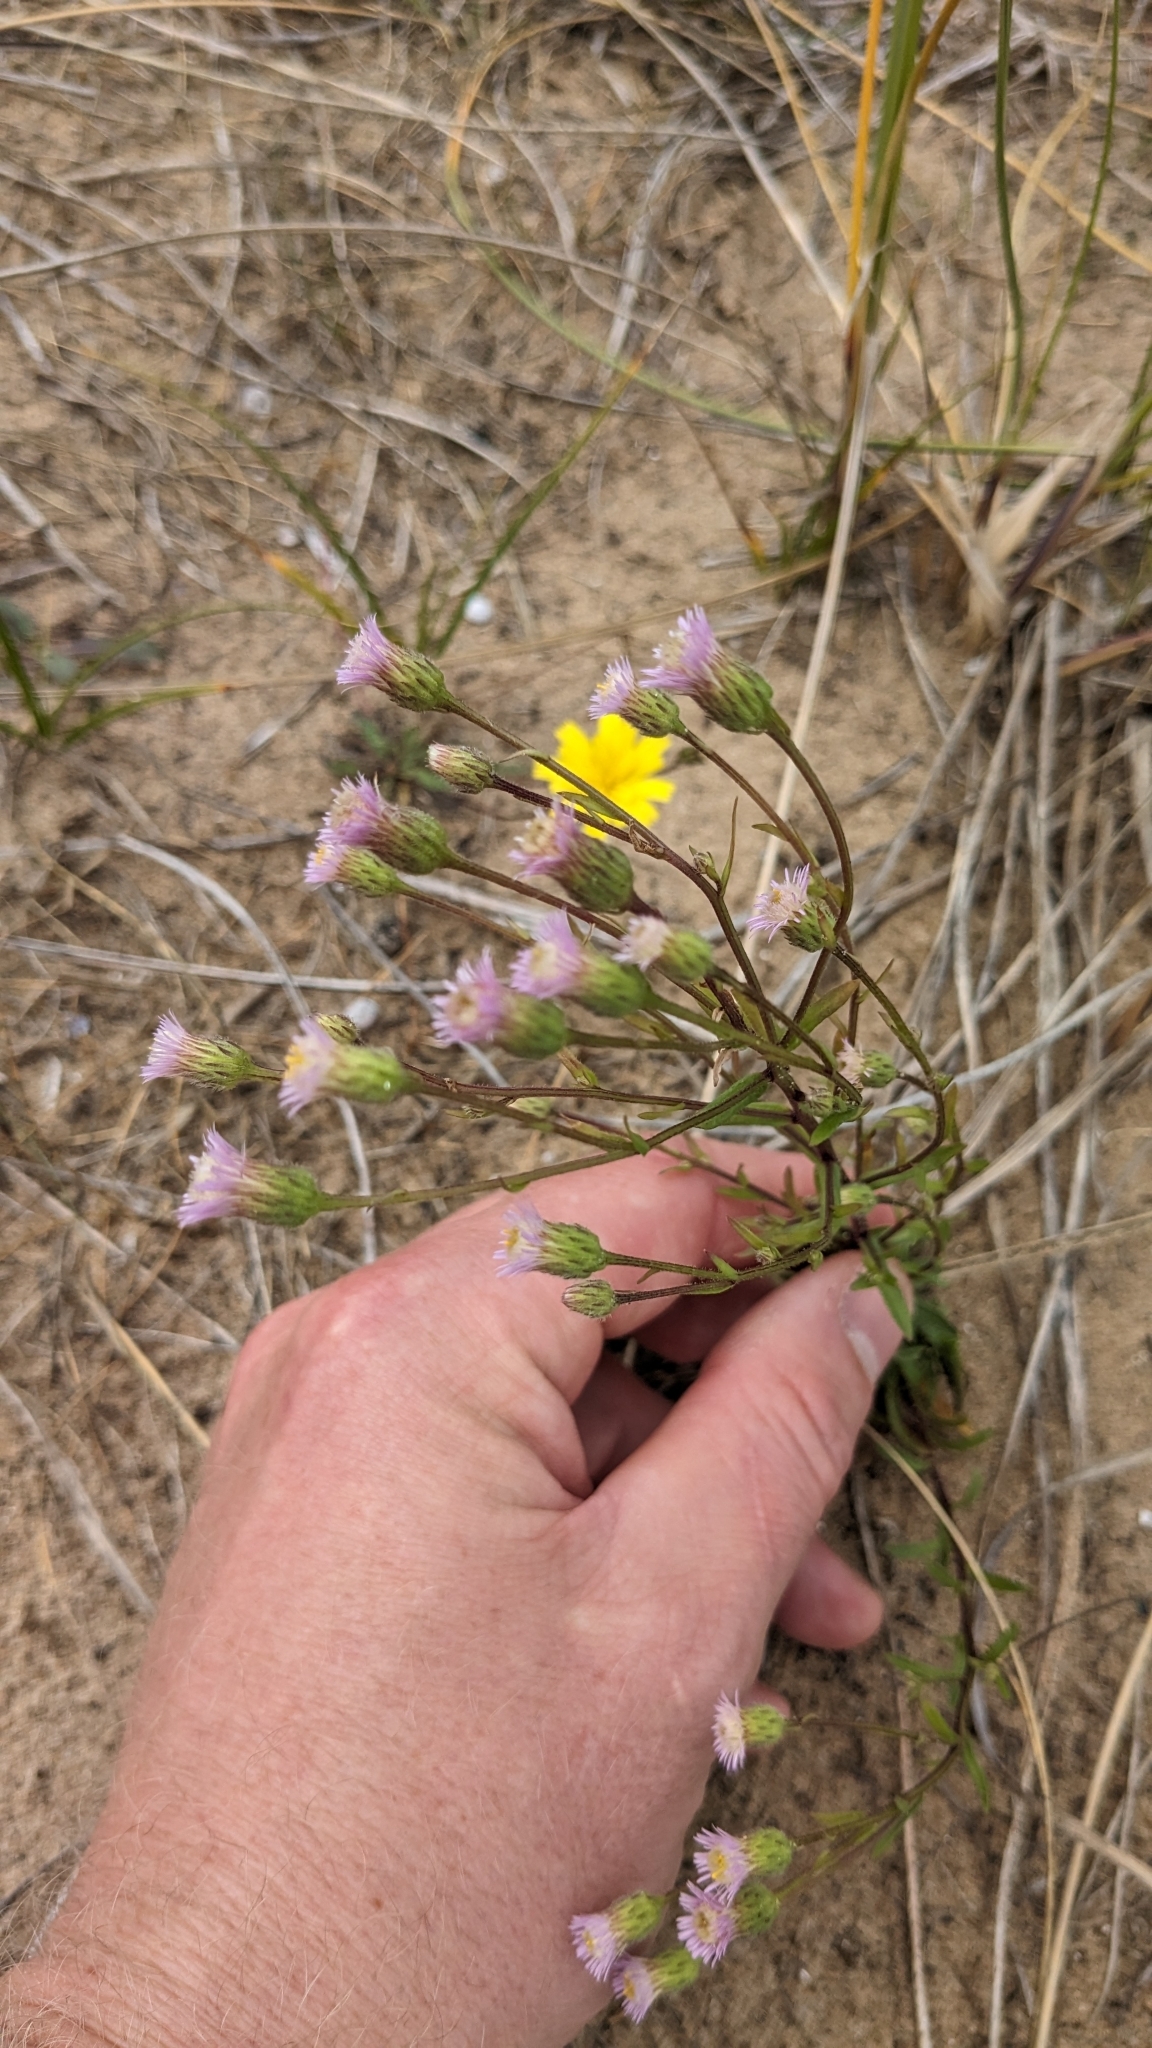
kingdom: Plantae
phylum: Tracheophyta
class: Magnoliopsida
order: Asterales
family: Asteraceae
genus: Erigeron
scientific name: Erigeron acris
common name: Blue fleabane
